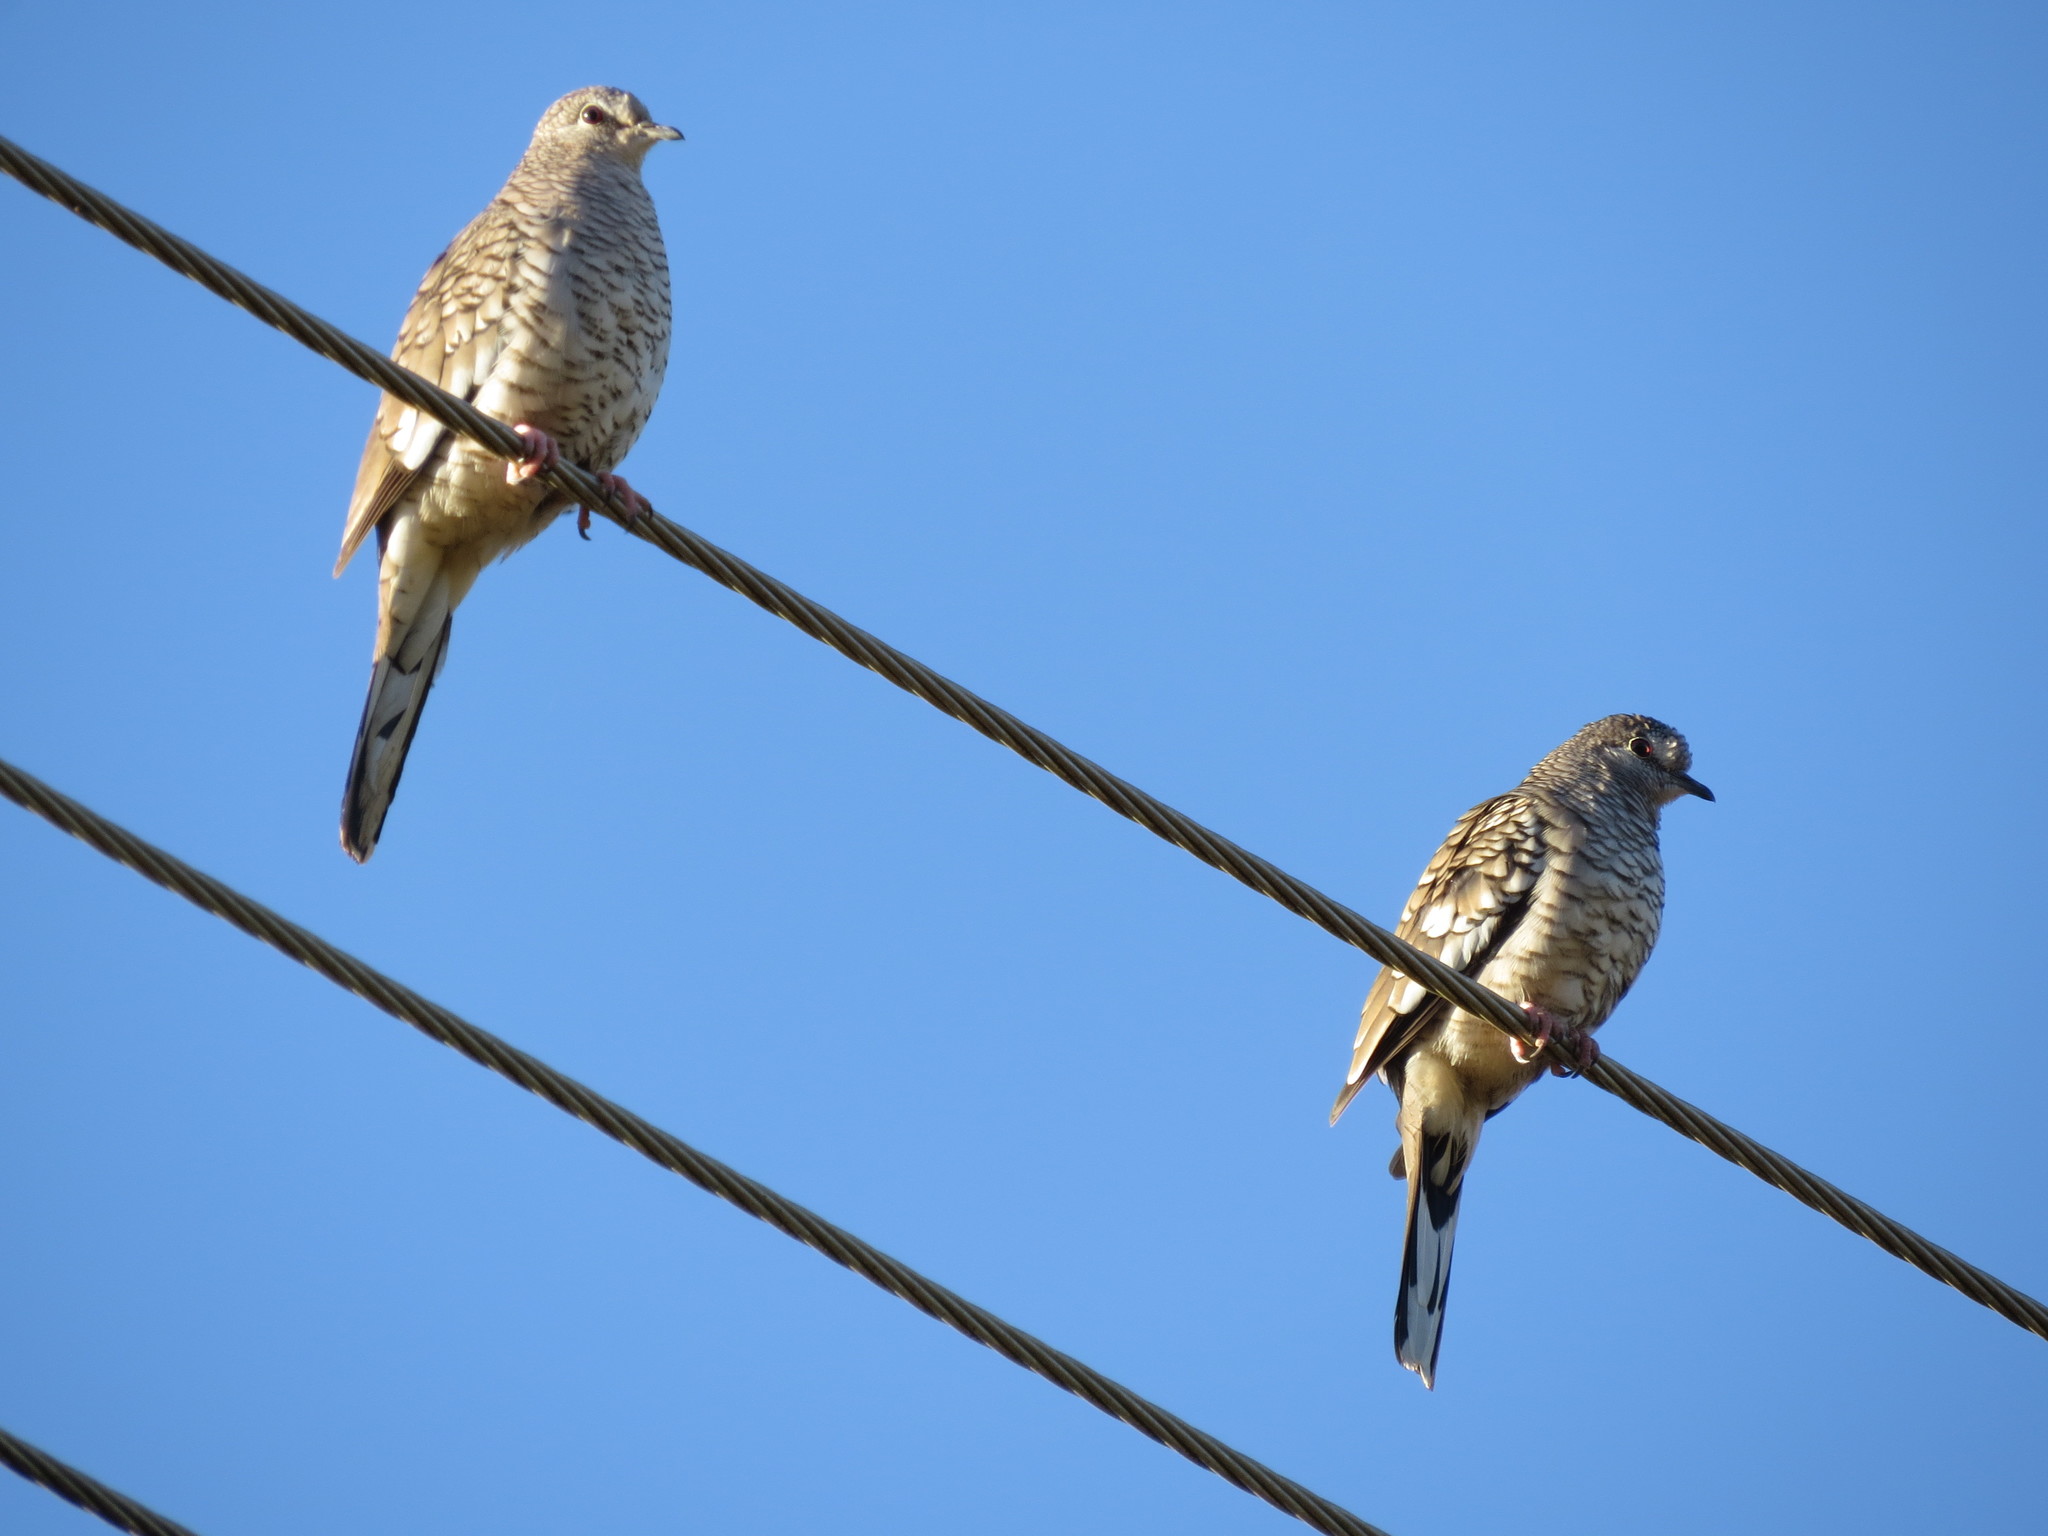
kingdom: Animalia
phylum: Chordata
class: Aves
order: Columbiformes
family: Columbidae
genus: Columbina
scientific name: Columbina squammata
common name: Scaled dove
